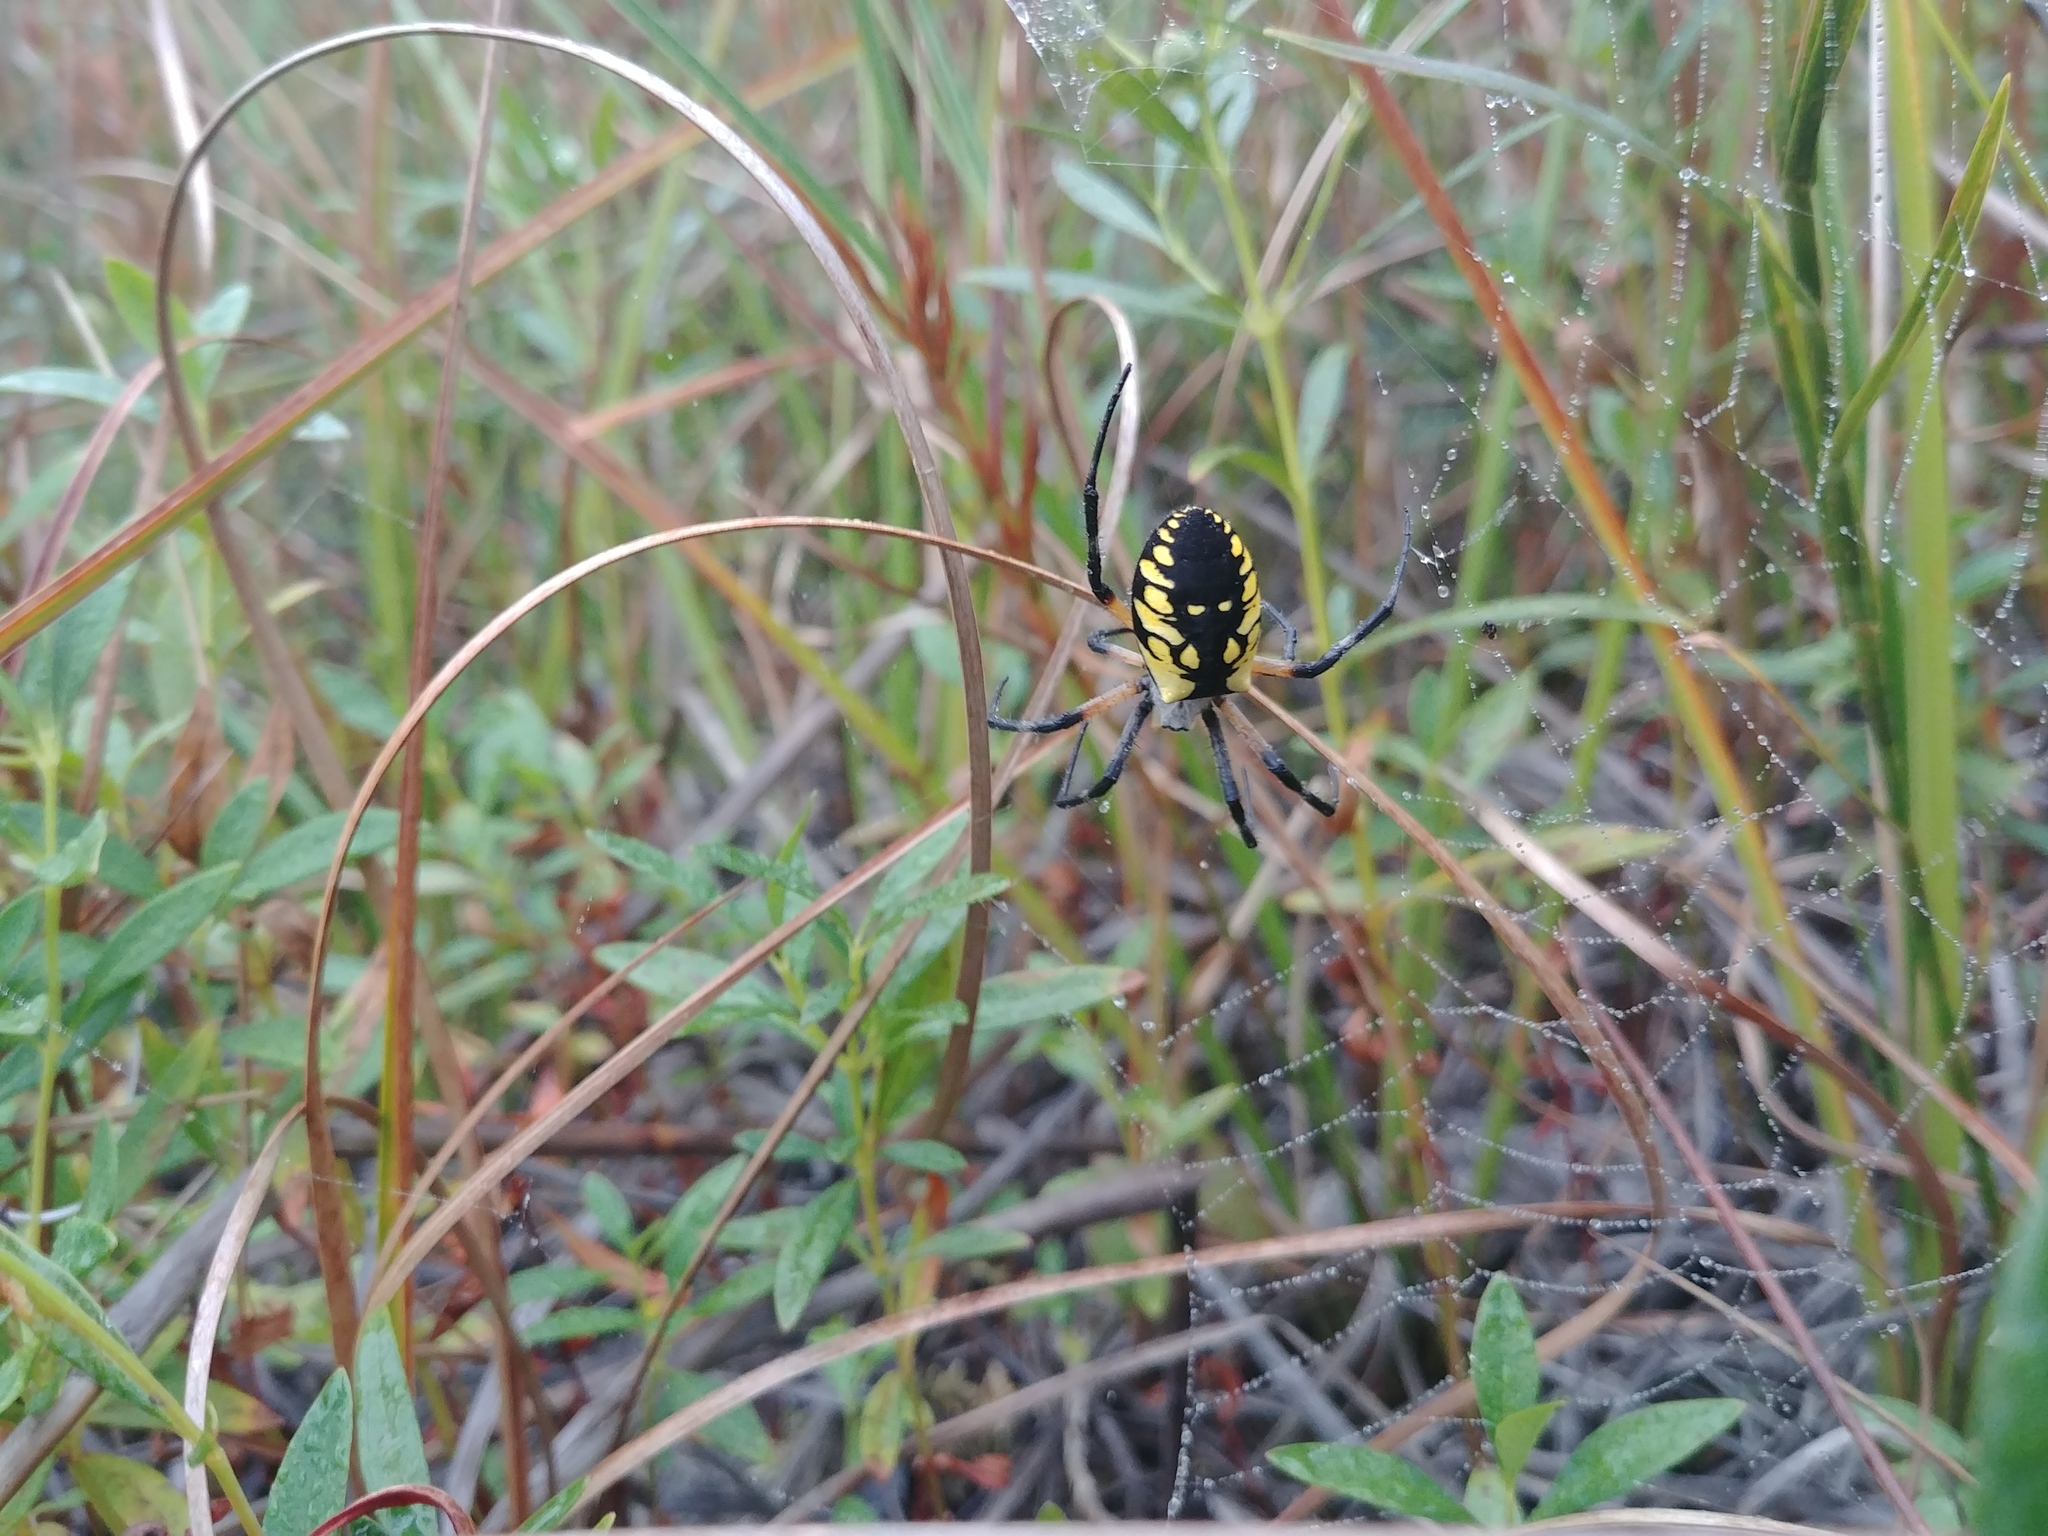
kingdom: Animalia
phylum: Arthropoda
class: Arachnida
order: Araneae
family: Araneidae
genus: Argiope
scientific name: Argiope aurantia
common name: Orb weavers
